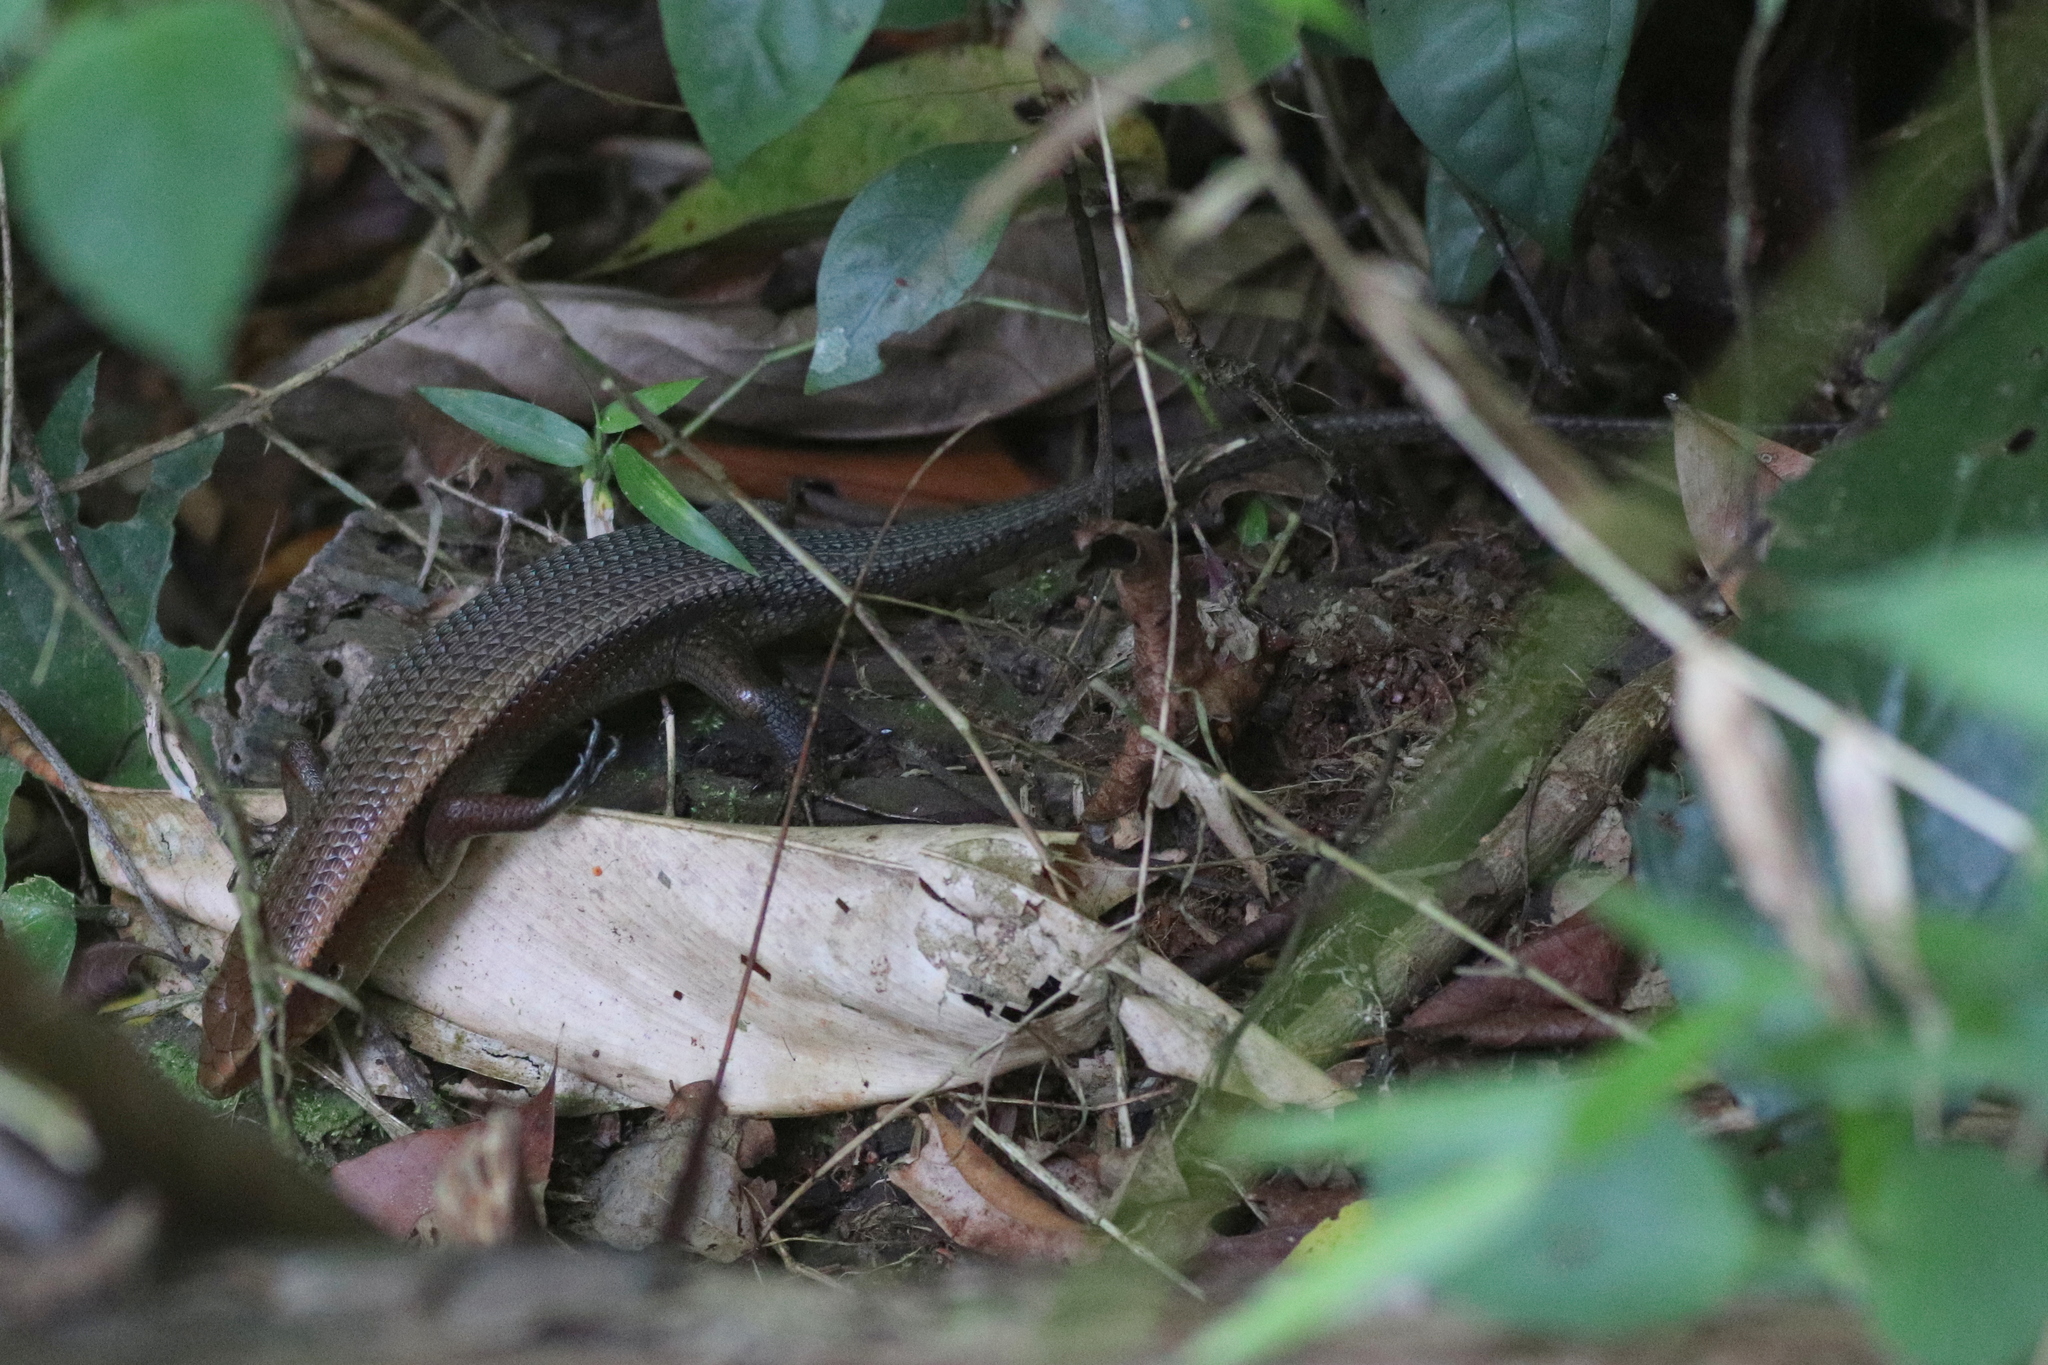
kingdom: Animalia
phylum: Chordata
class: Squamata
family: Scincidae
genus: Eutropis
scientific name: Eutropis multifasciata
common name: Common mabuya
